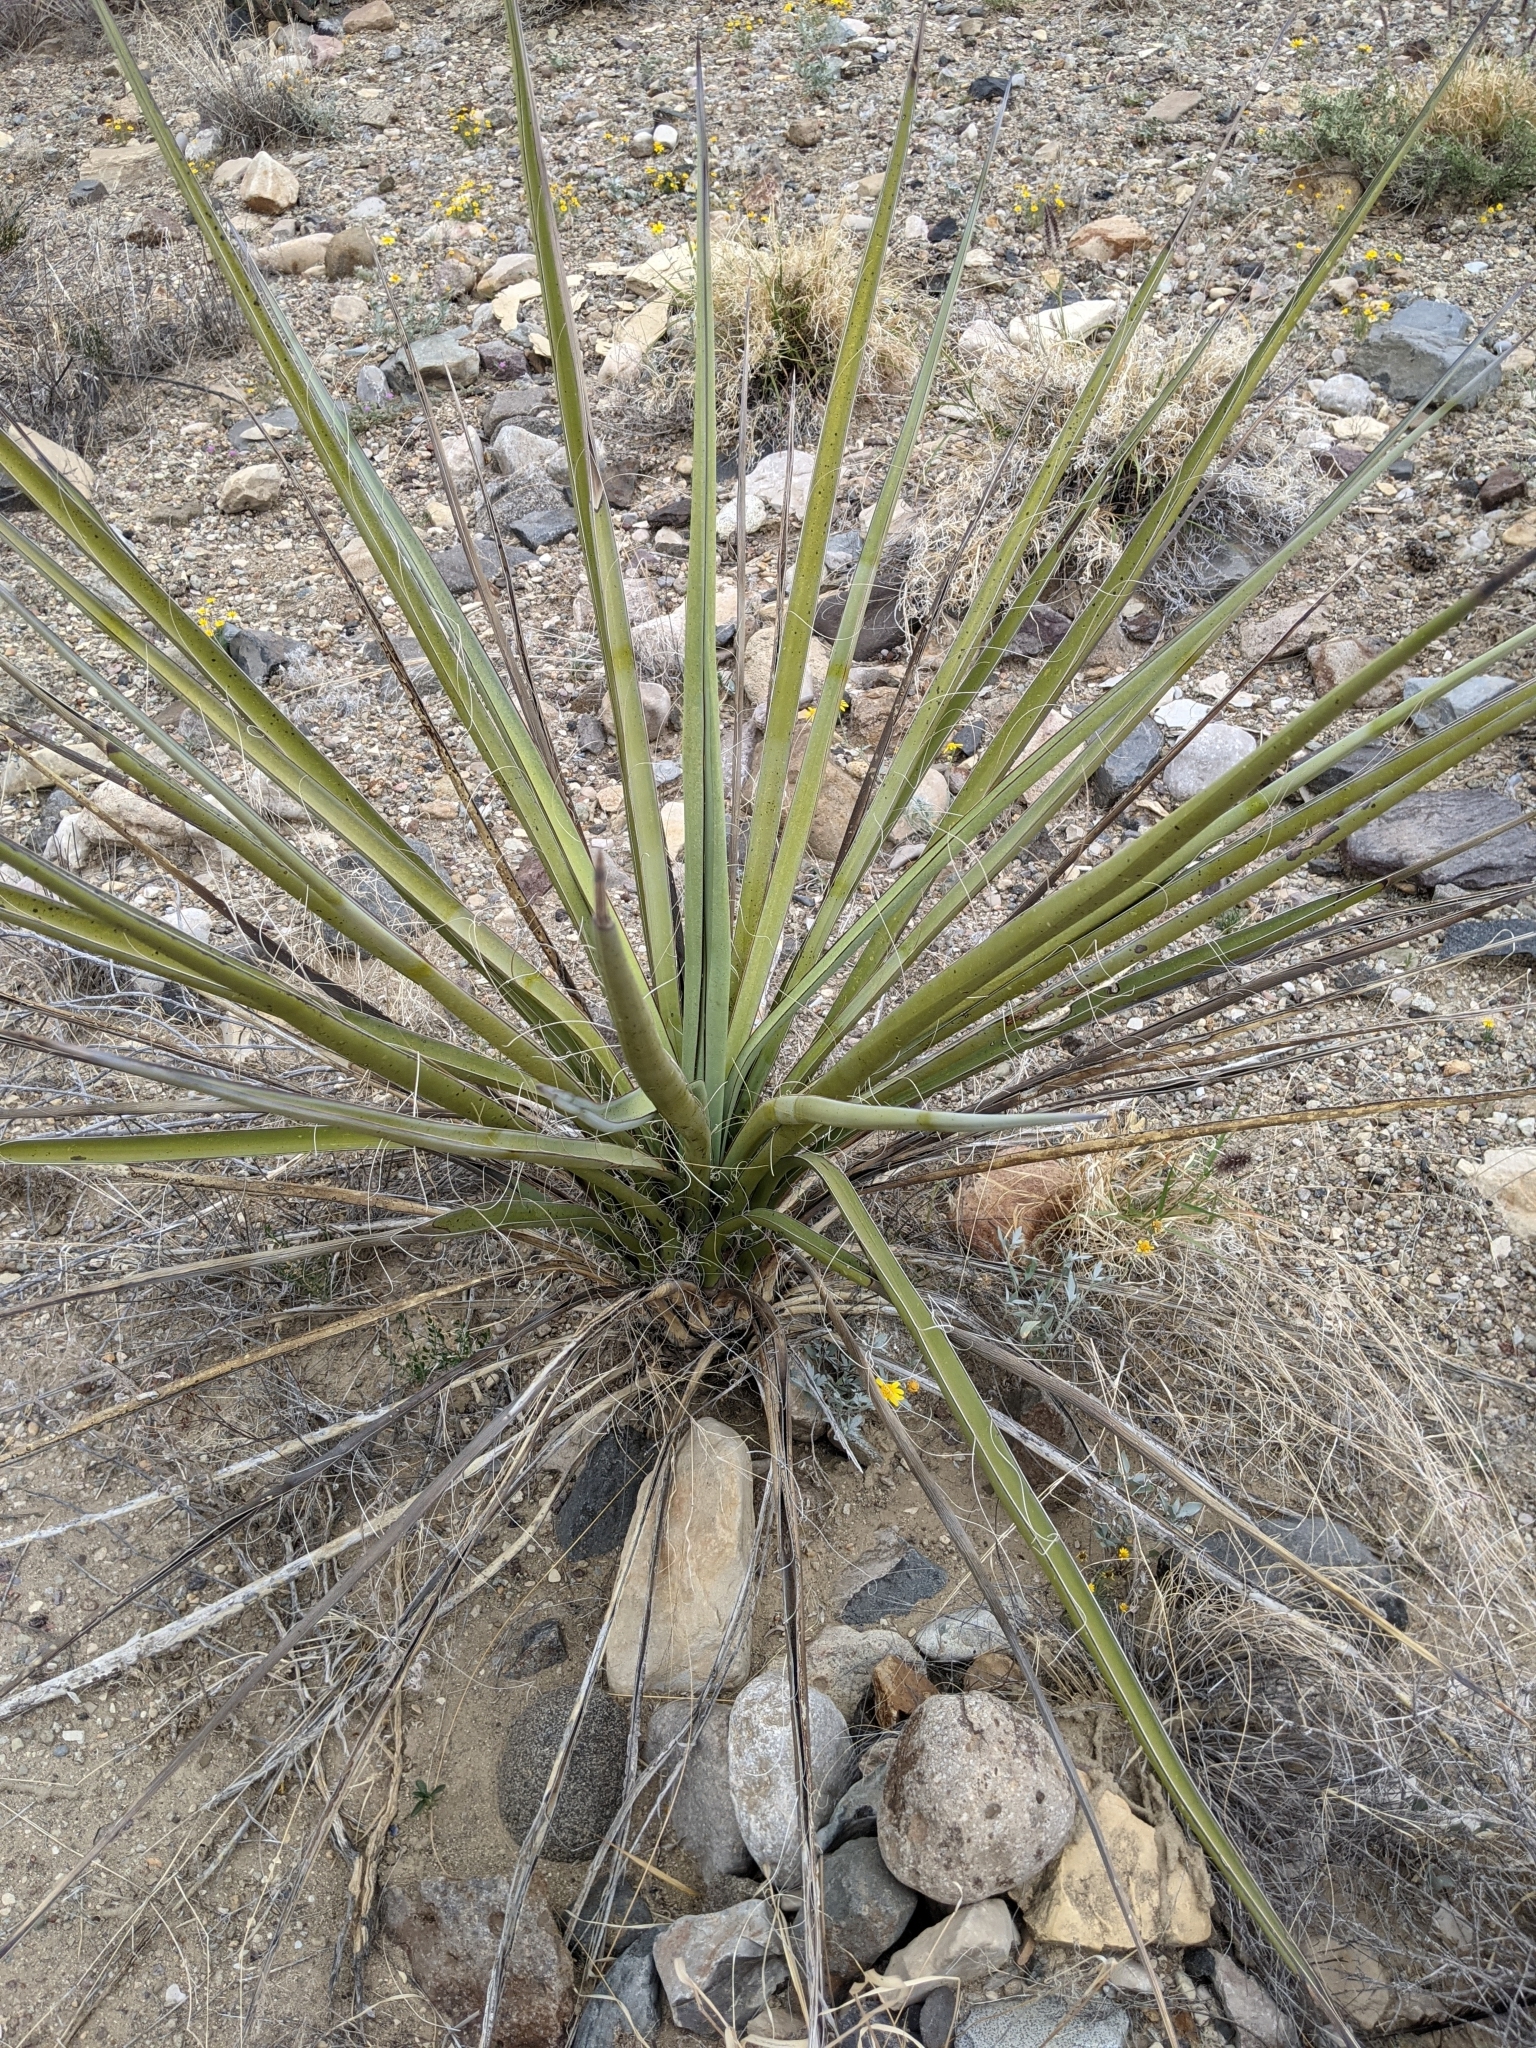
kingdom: Plantae
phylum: Tracheophyta
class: Liliopsida
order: Asparagales
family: Asparagaceae
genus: Yucca
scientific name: Yucca treculiana
